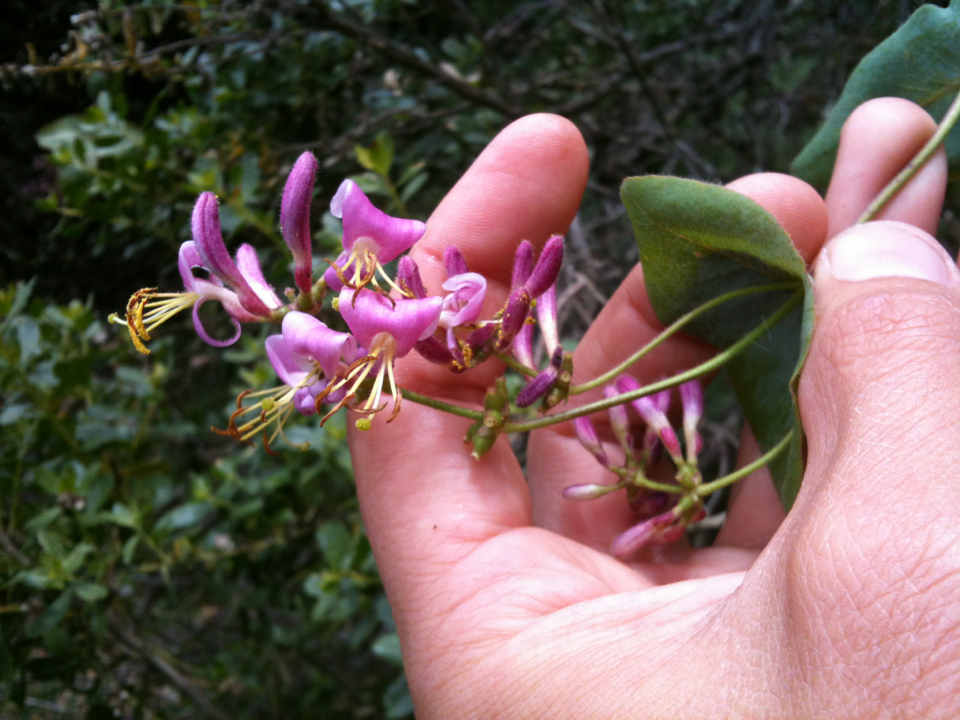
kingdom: Plantae
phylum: Tracheophyta
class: Magnoliopsida
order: Dipsacales
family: Caprifoliaceae
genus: Lonicera
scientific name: Lonicera hispidula
